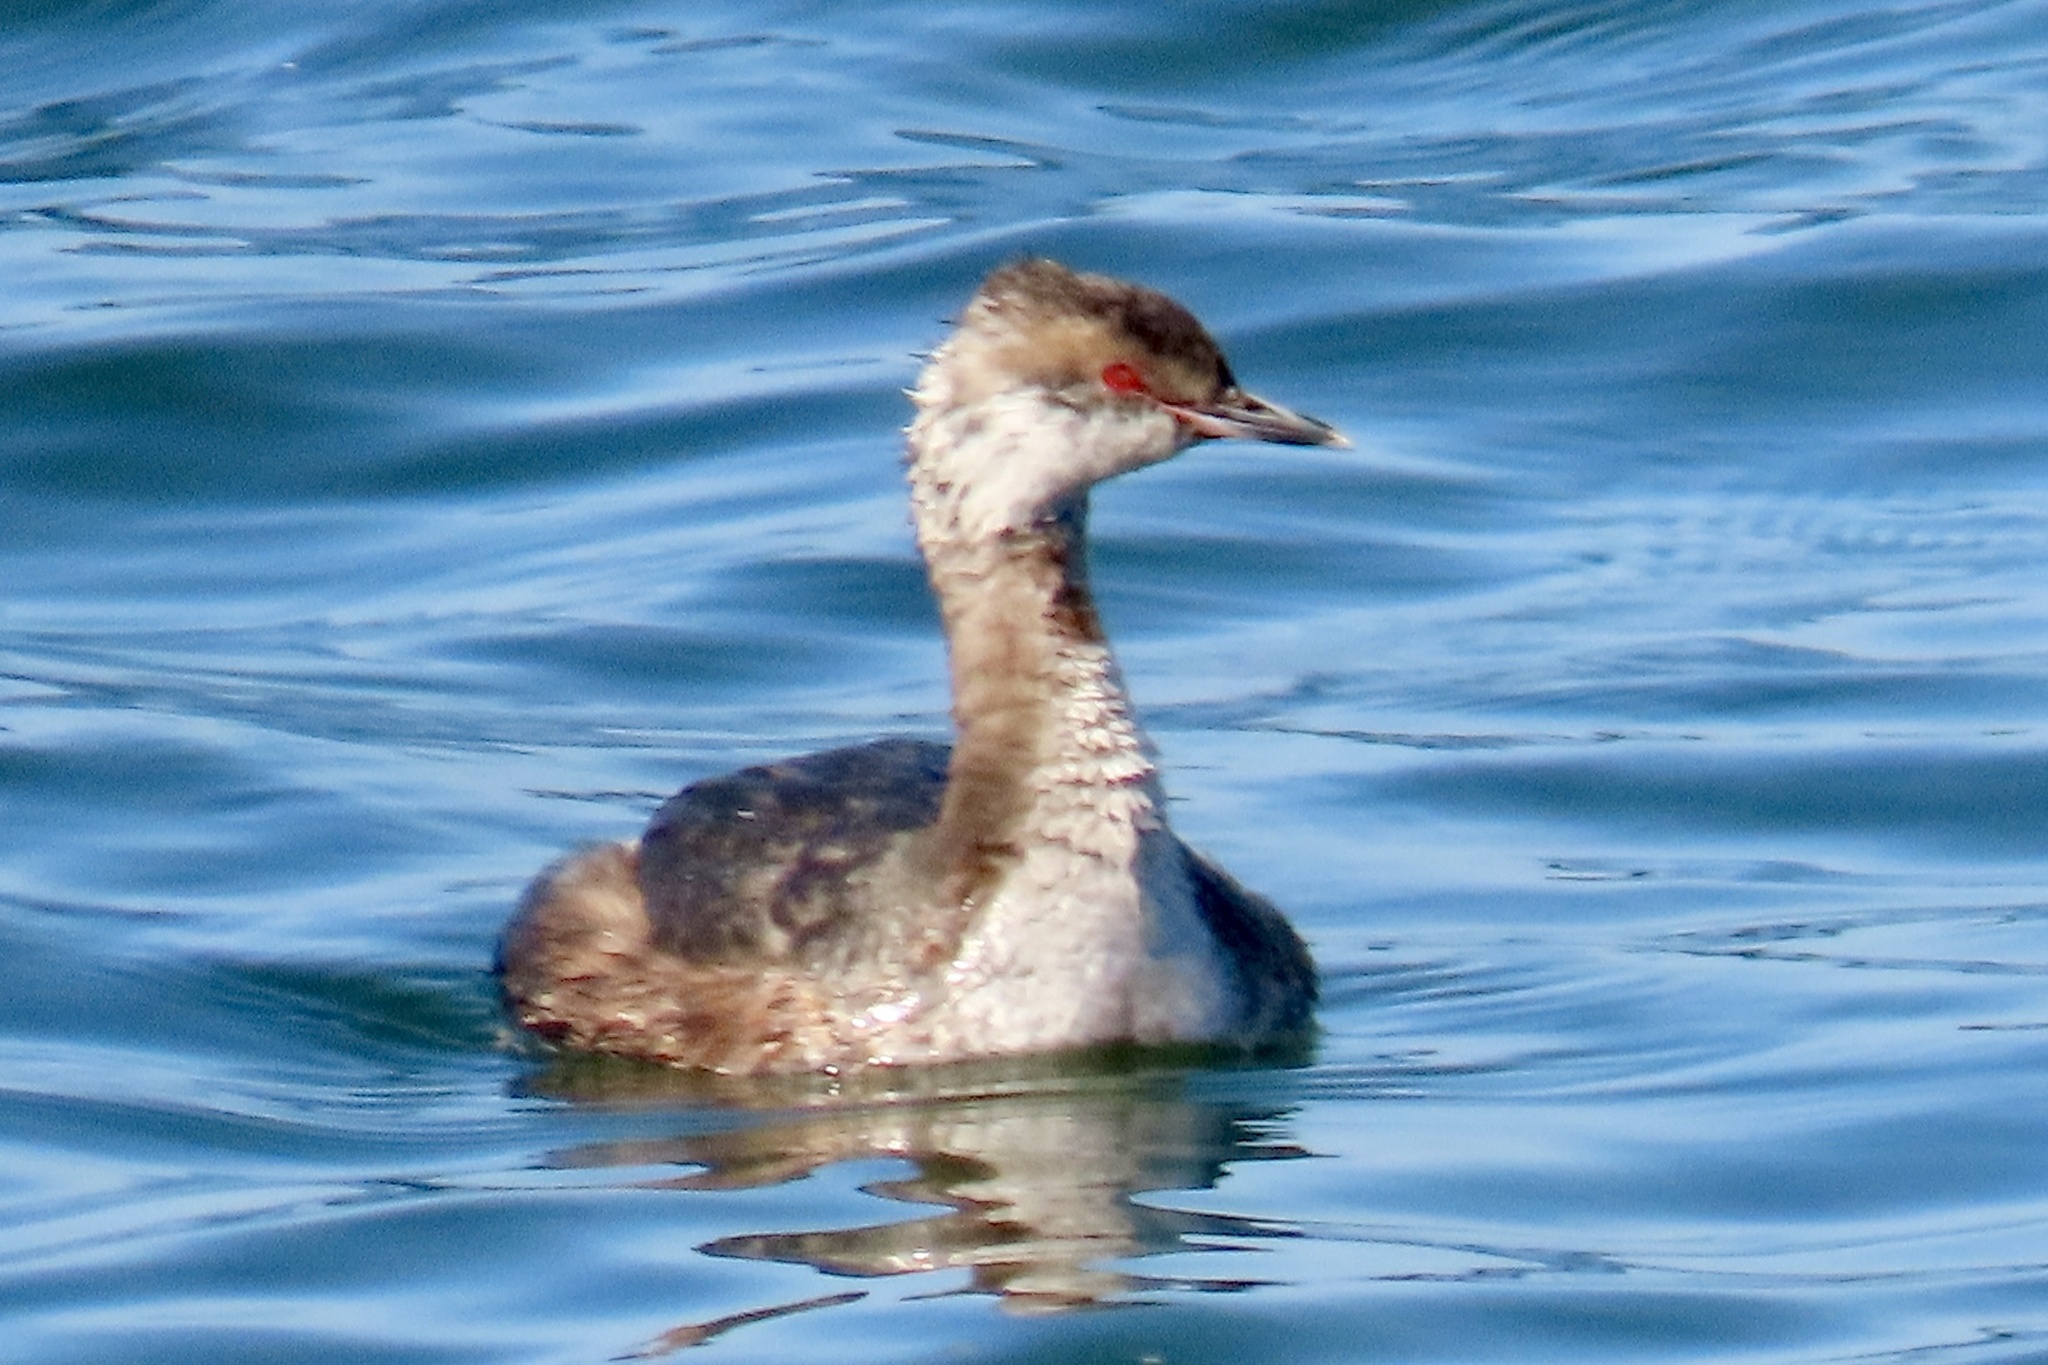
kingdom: Animalia
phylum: Chordata
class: Aves
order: Podicipediformes
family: Podicipedidae
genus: Podiceps
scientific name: Podiceps auritus
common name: Horned grebe
